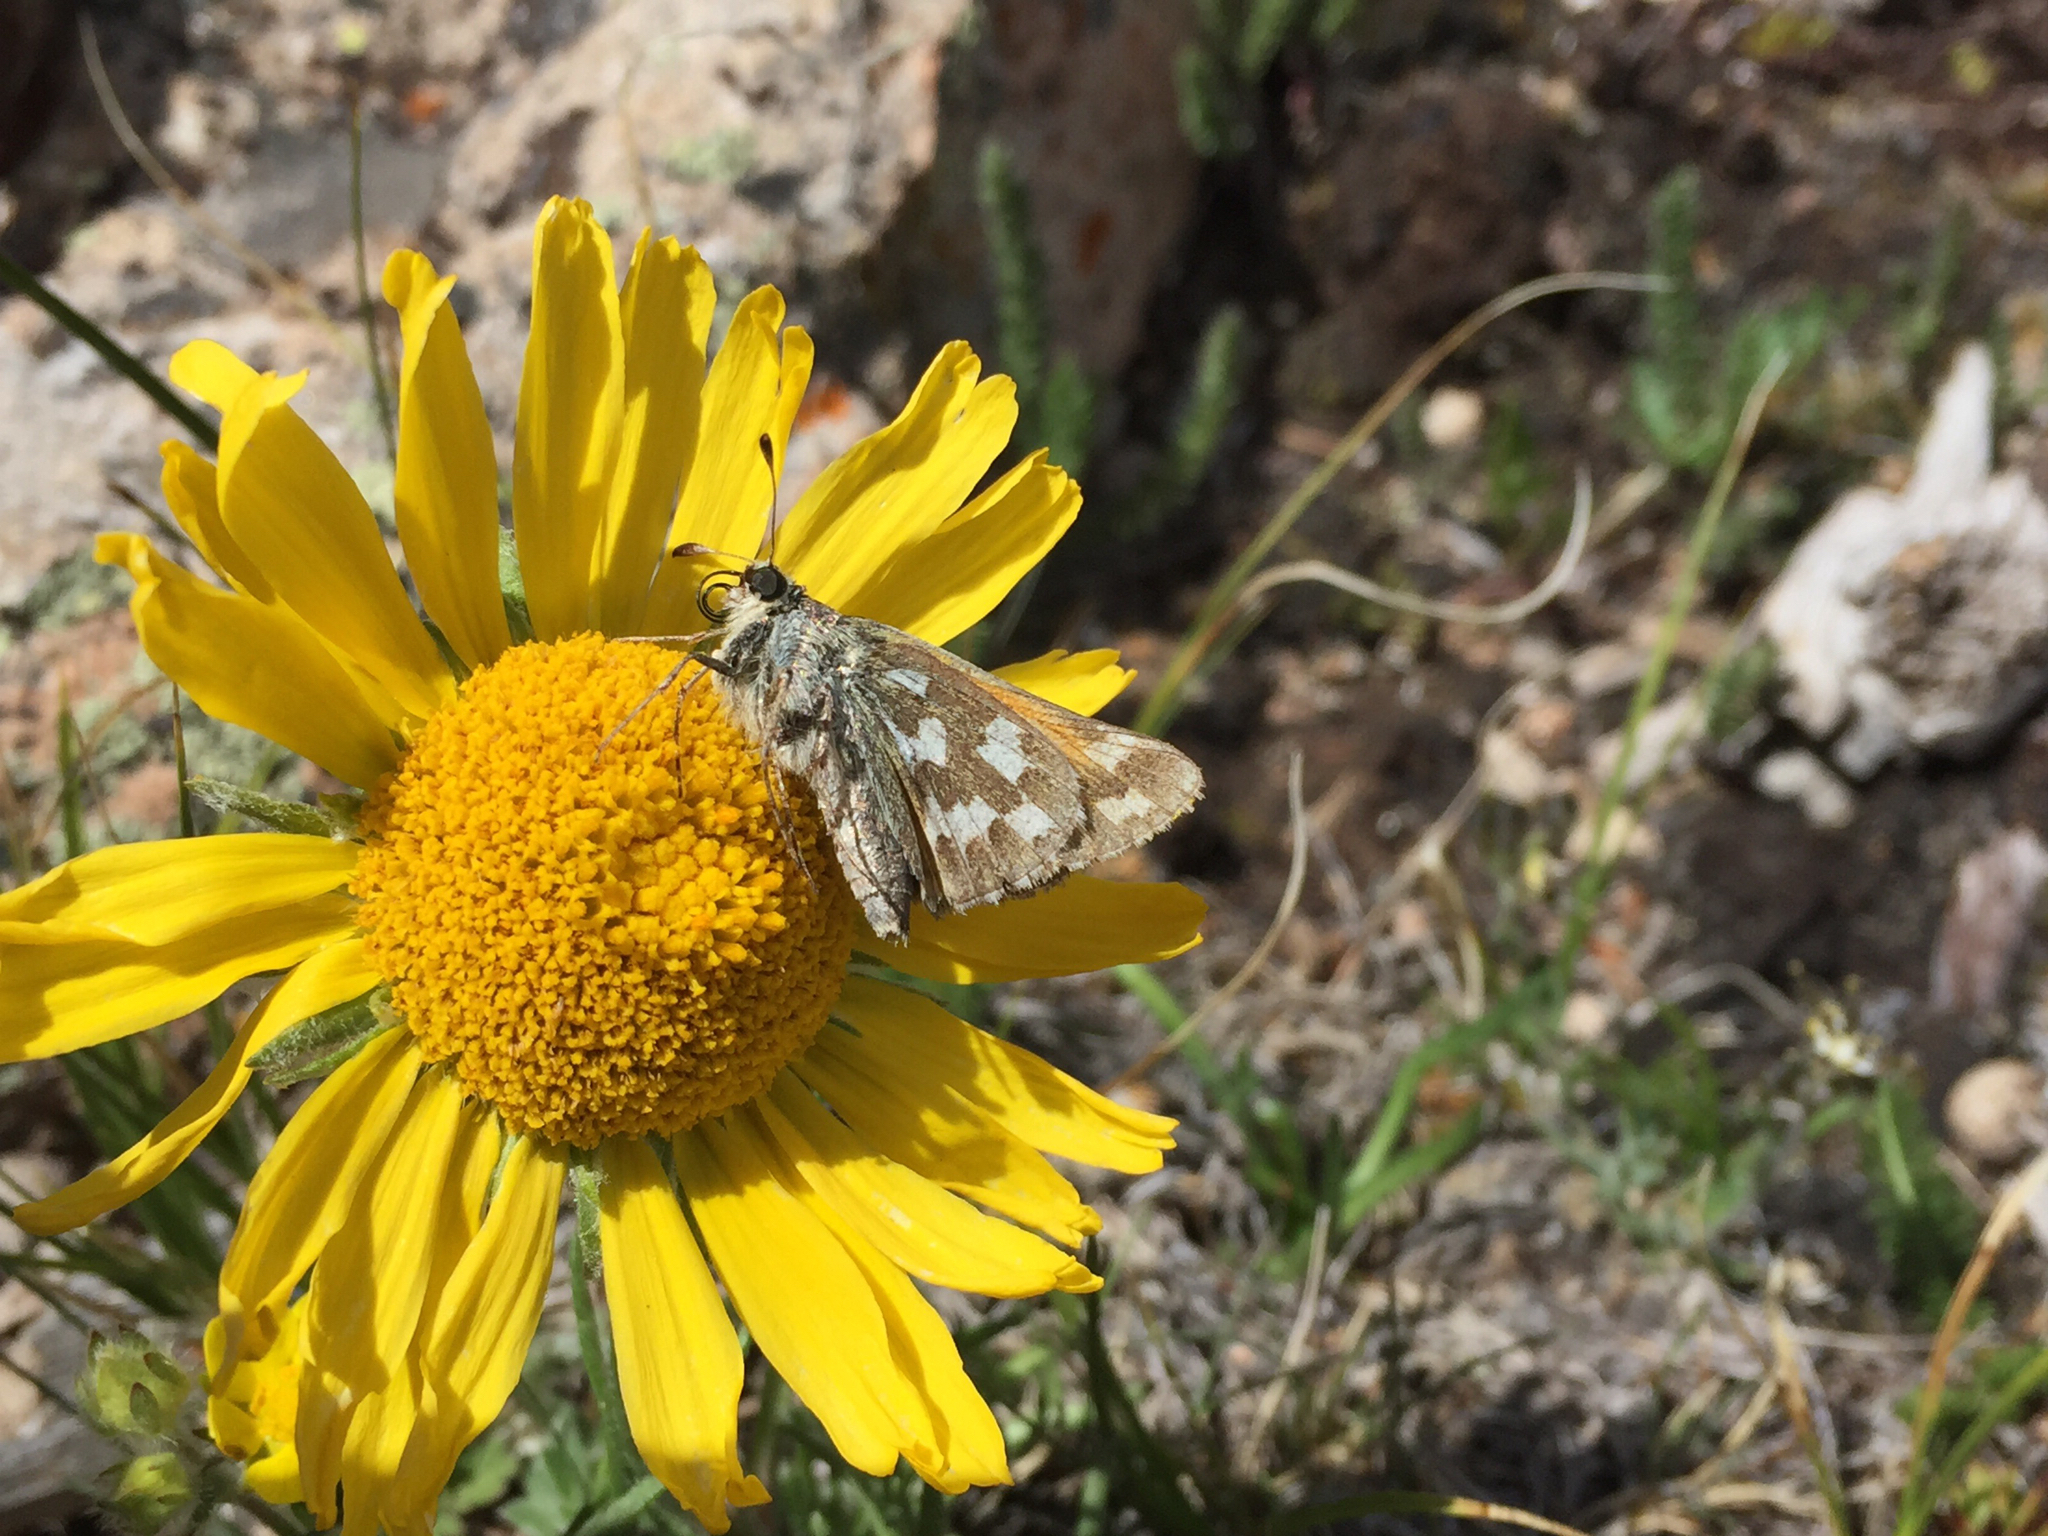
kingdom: Animalia
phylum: Arthropoda
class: Insecta
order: Lepidoptera
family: Hesperiidae
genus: Hesperia
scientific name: Hesperia juba
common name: Juba skipper
